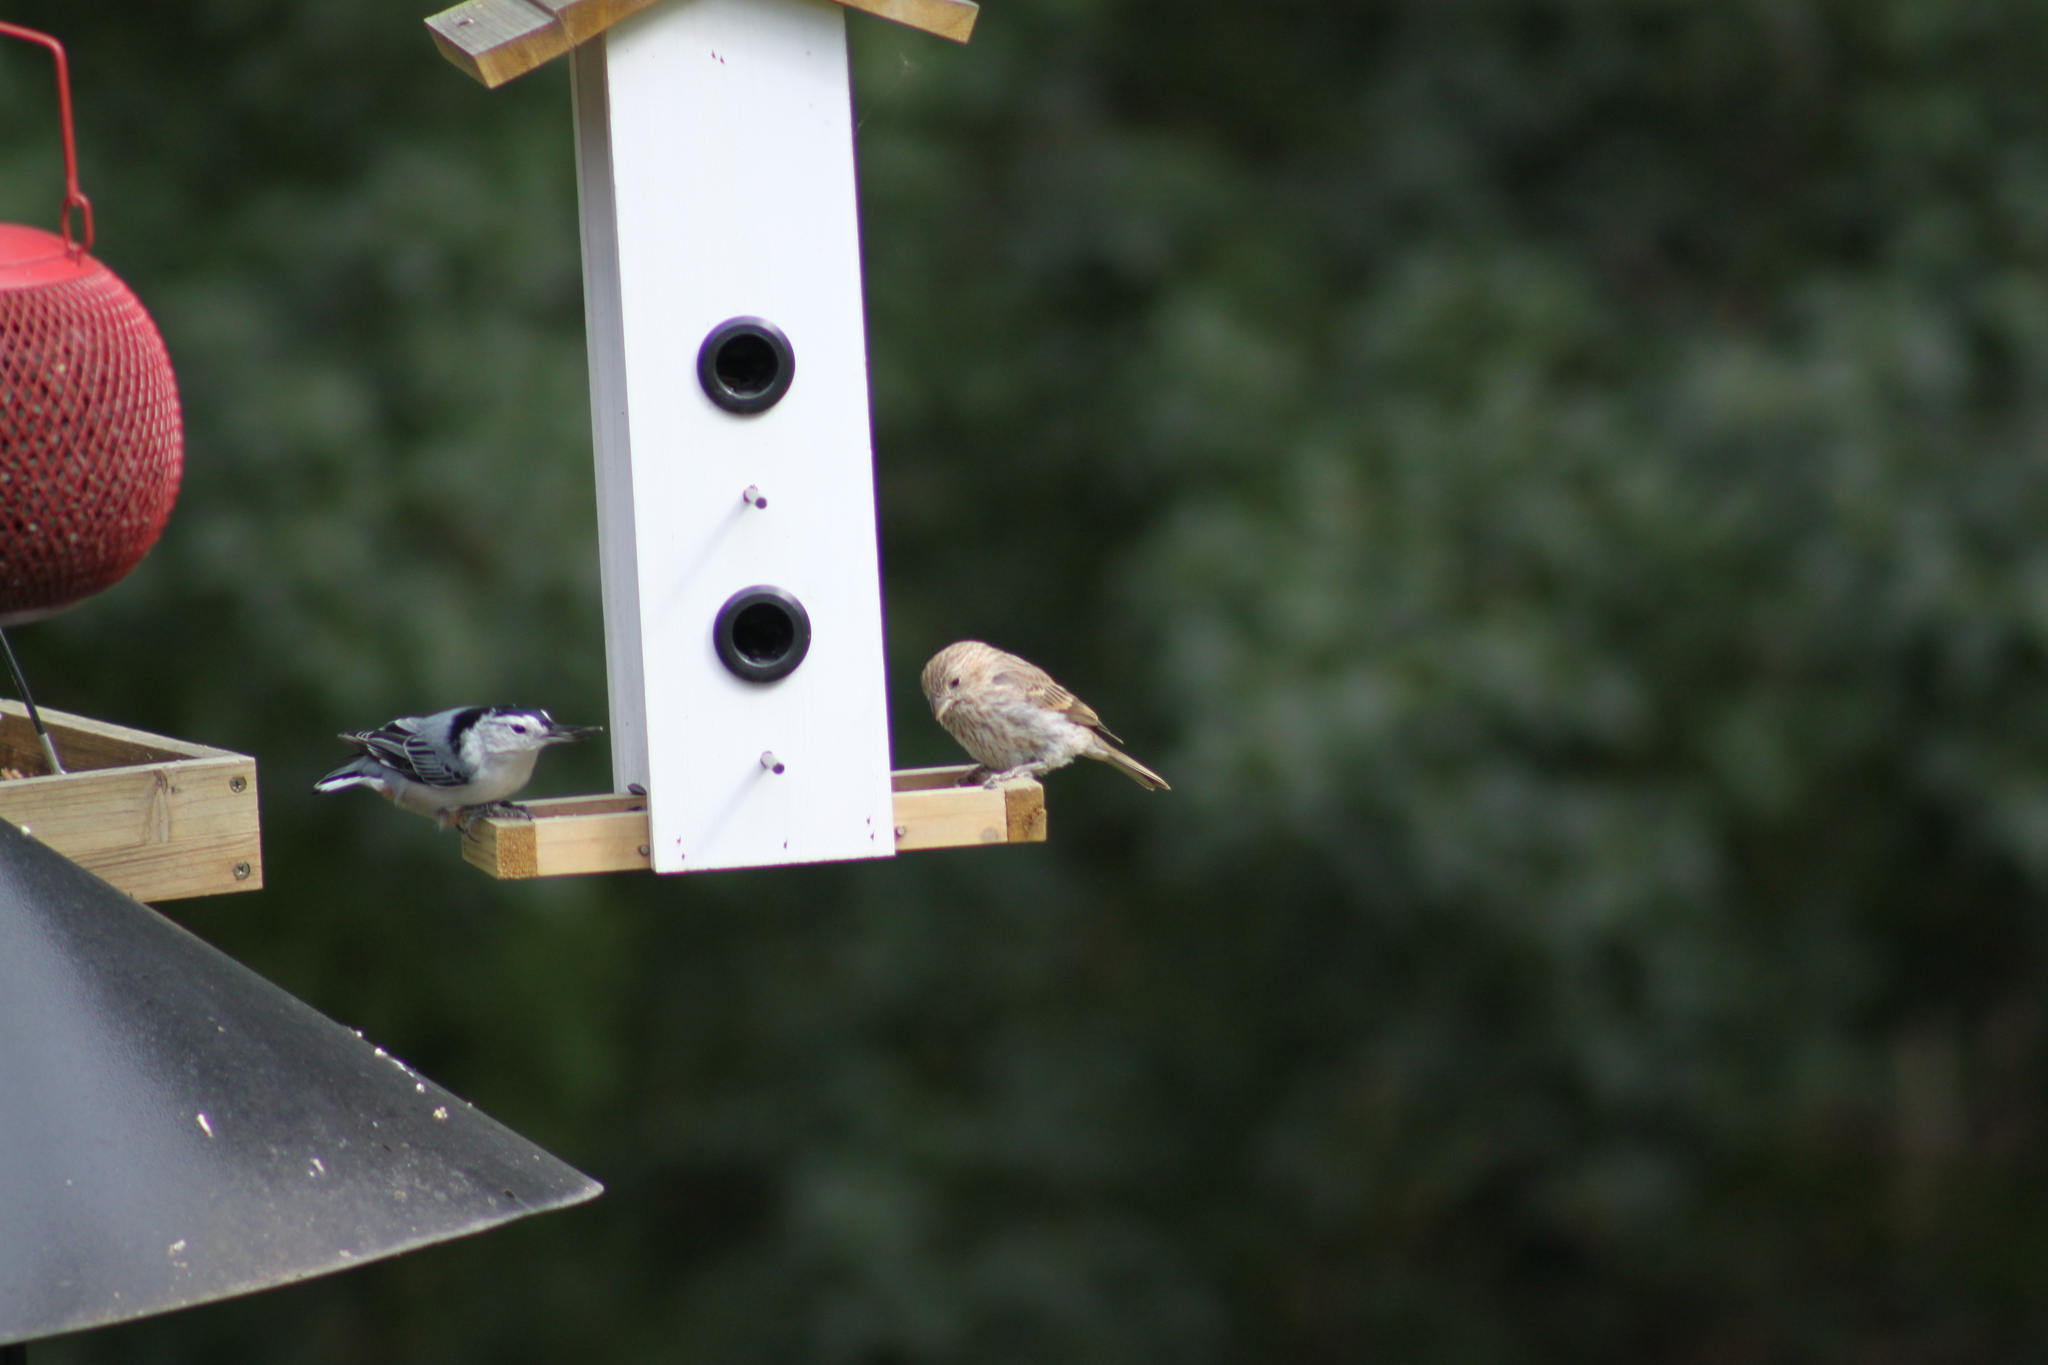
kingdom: Animalia
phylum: Chordata
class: Aves
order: Passeriformes
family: Sittidae
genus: Sitta
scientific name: Sitta carolinensis
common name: White-breasted nuthatch
